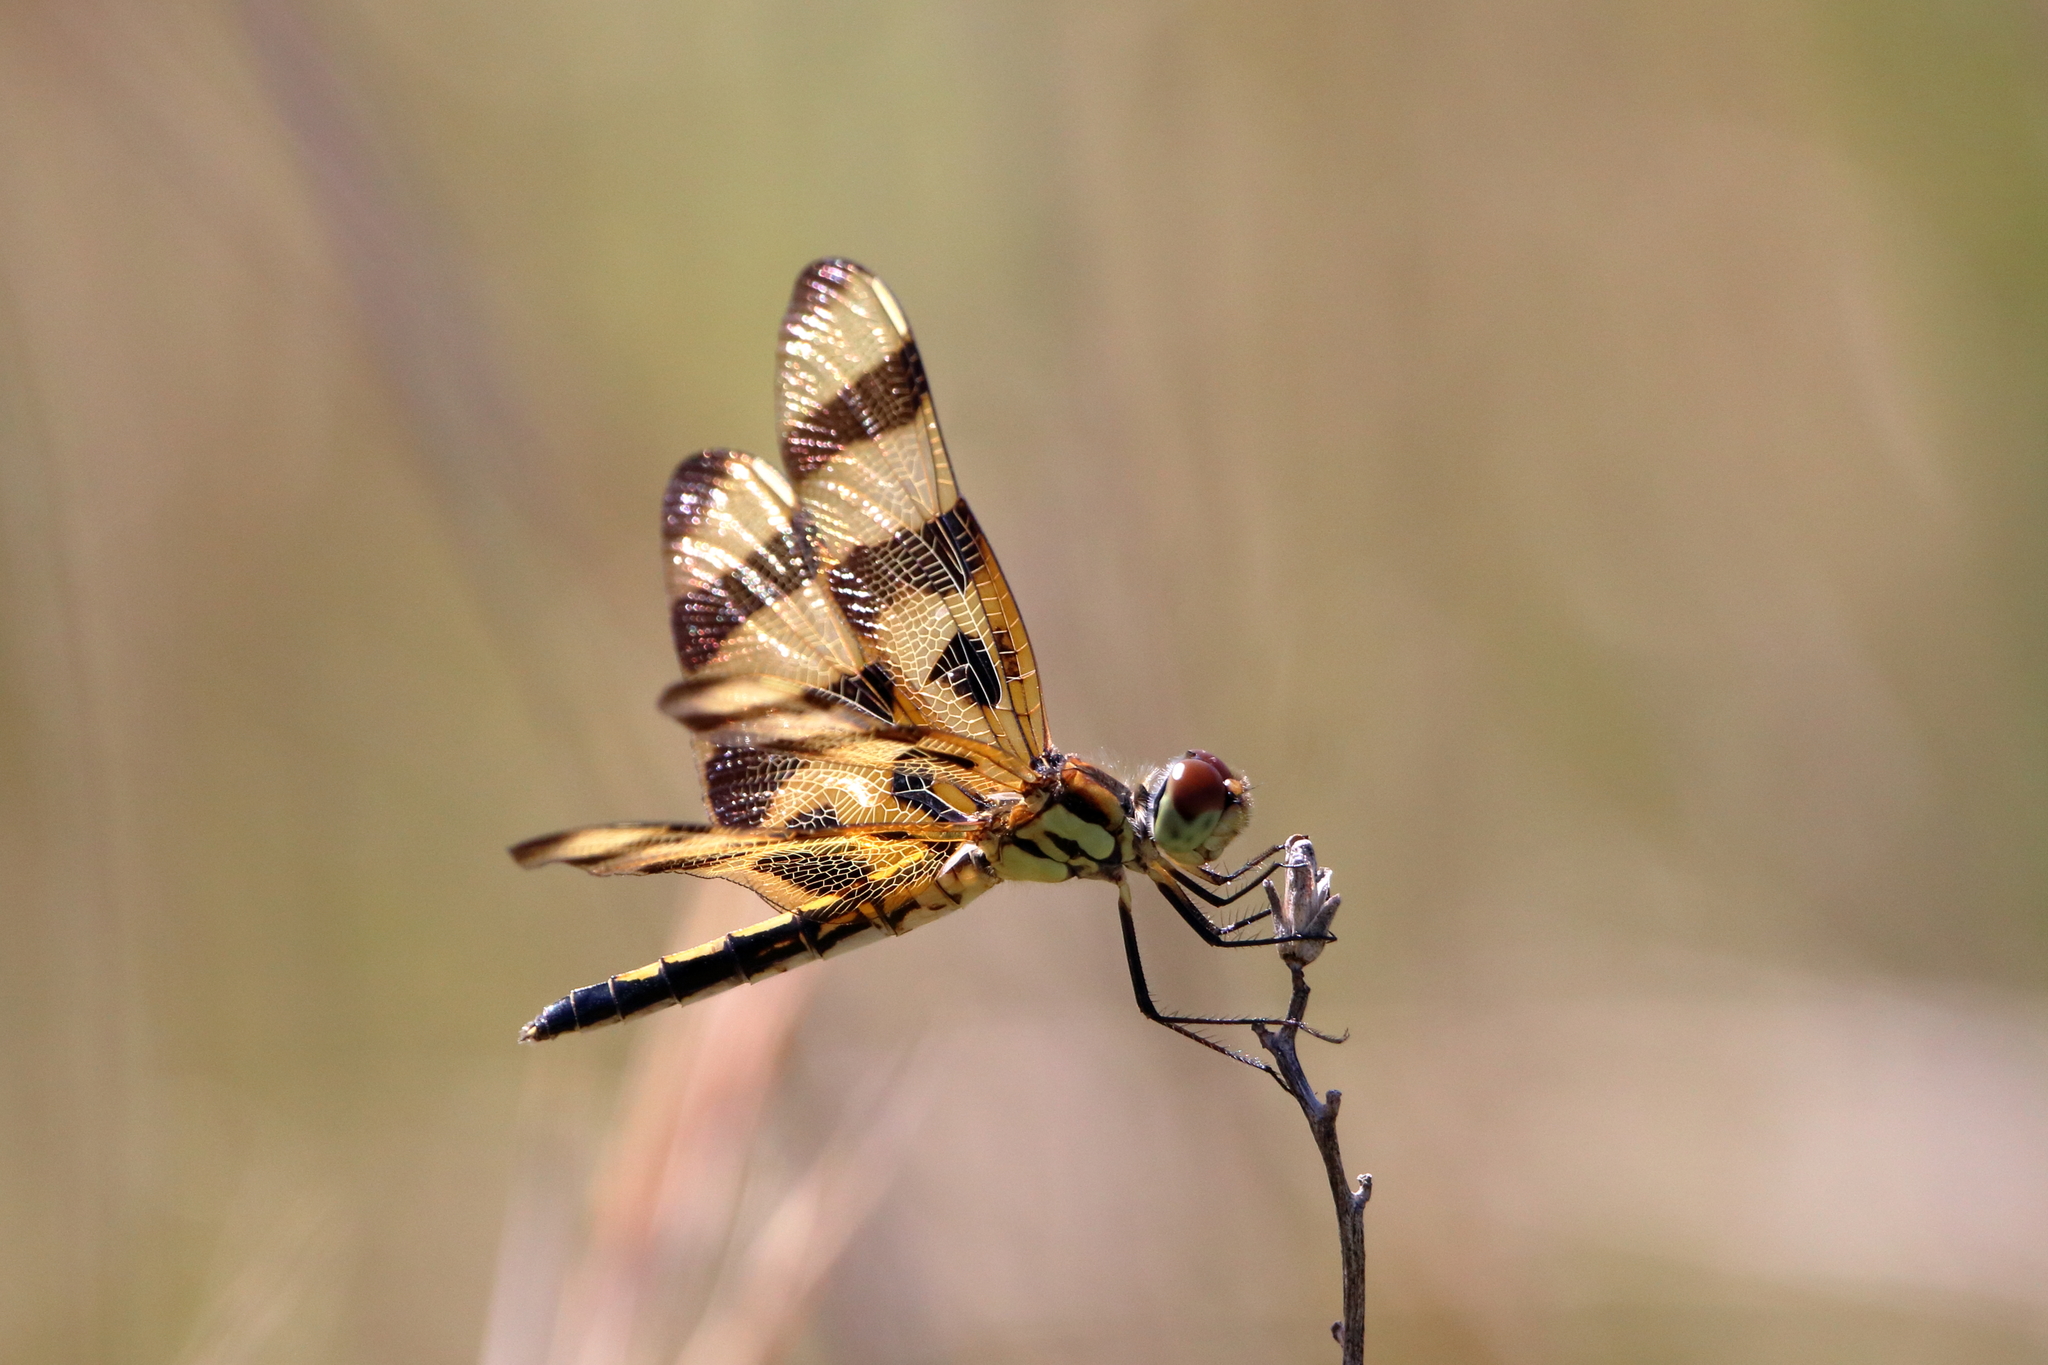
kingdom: Animalia
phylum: Arthropoda
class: Insecta
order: Odonata
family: Libellulidae
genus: Celithemis
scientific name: Celithemis eponina
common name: Halloween pennant
